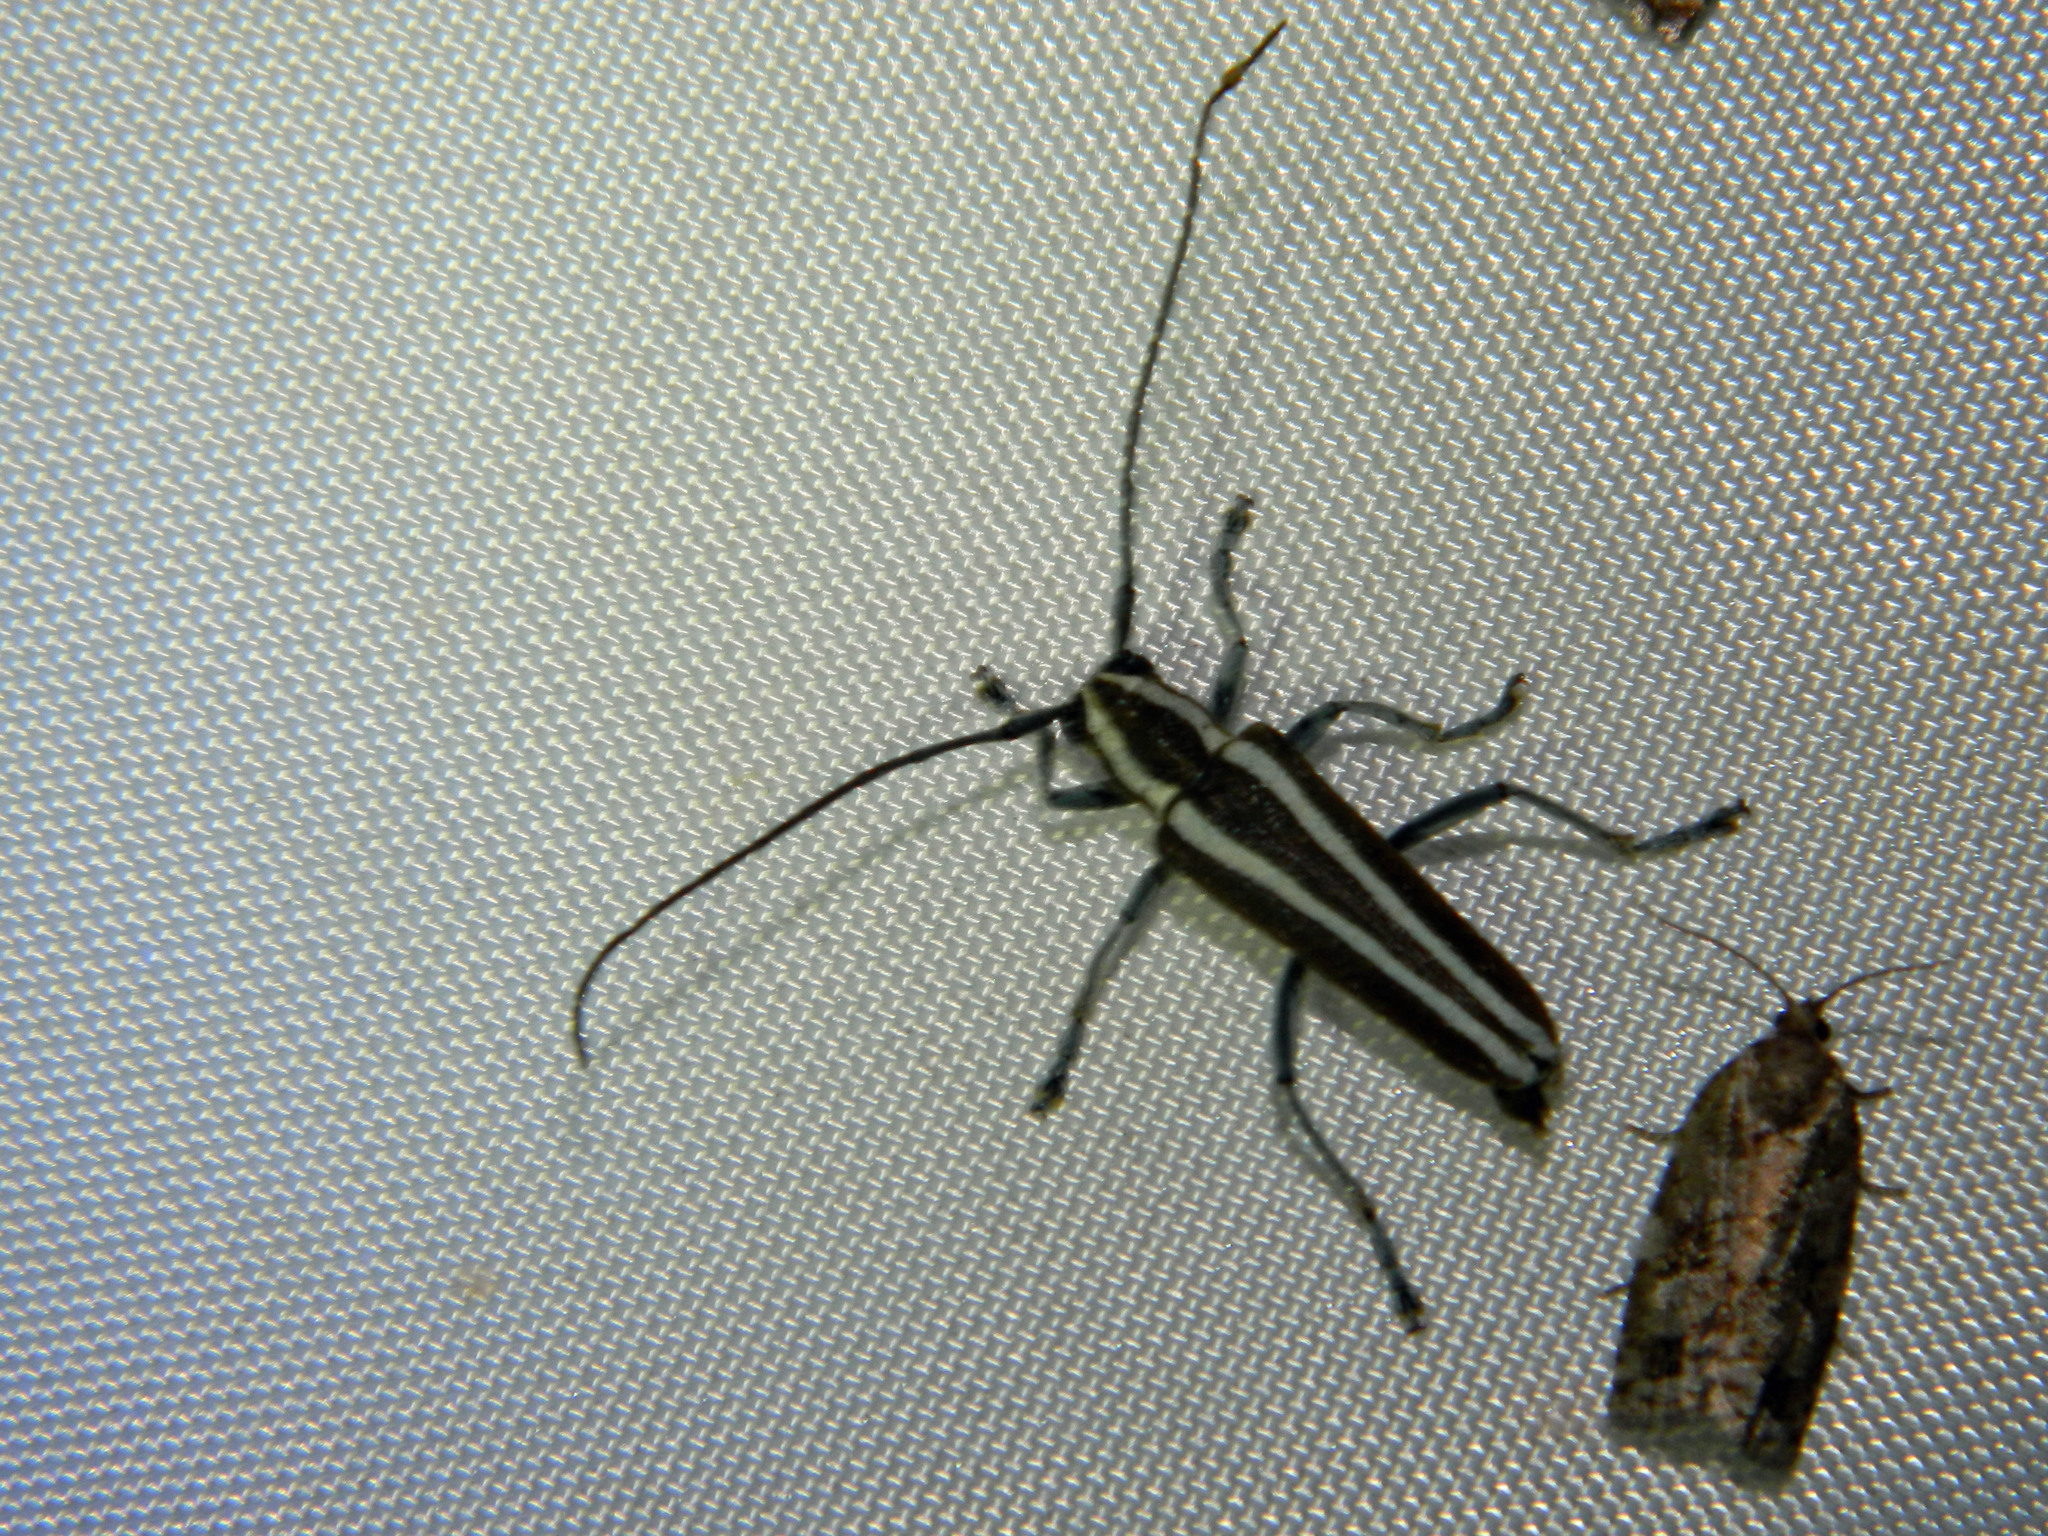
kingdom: Animalia
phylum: Arthropoda
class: Insecta
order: Coleoptera
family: Cerambycidae
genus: Saperda
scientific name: Saperda candida
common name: Round-headed borer
